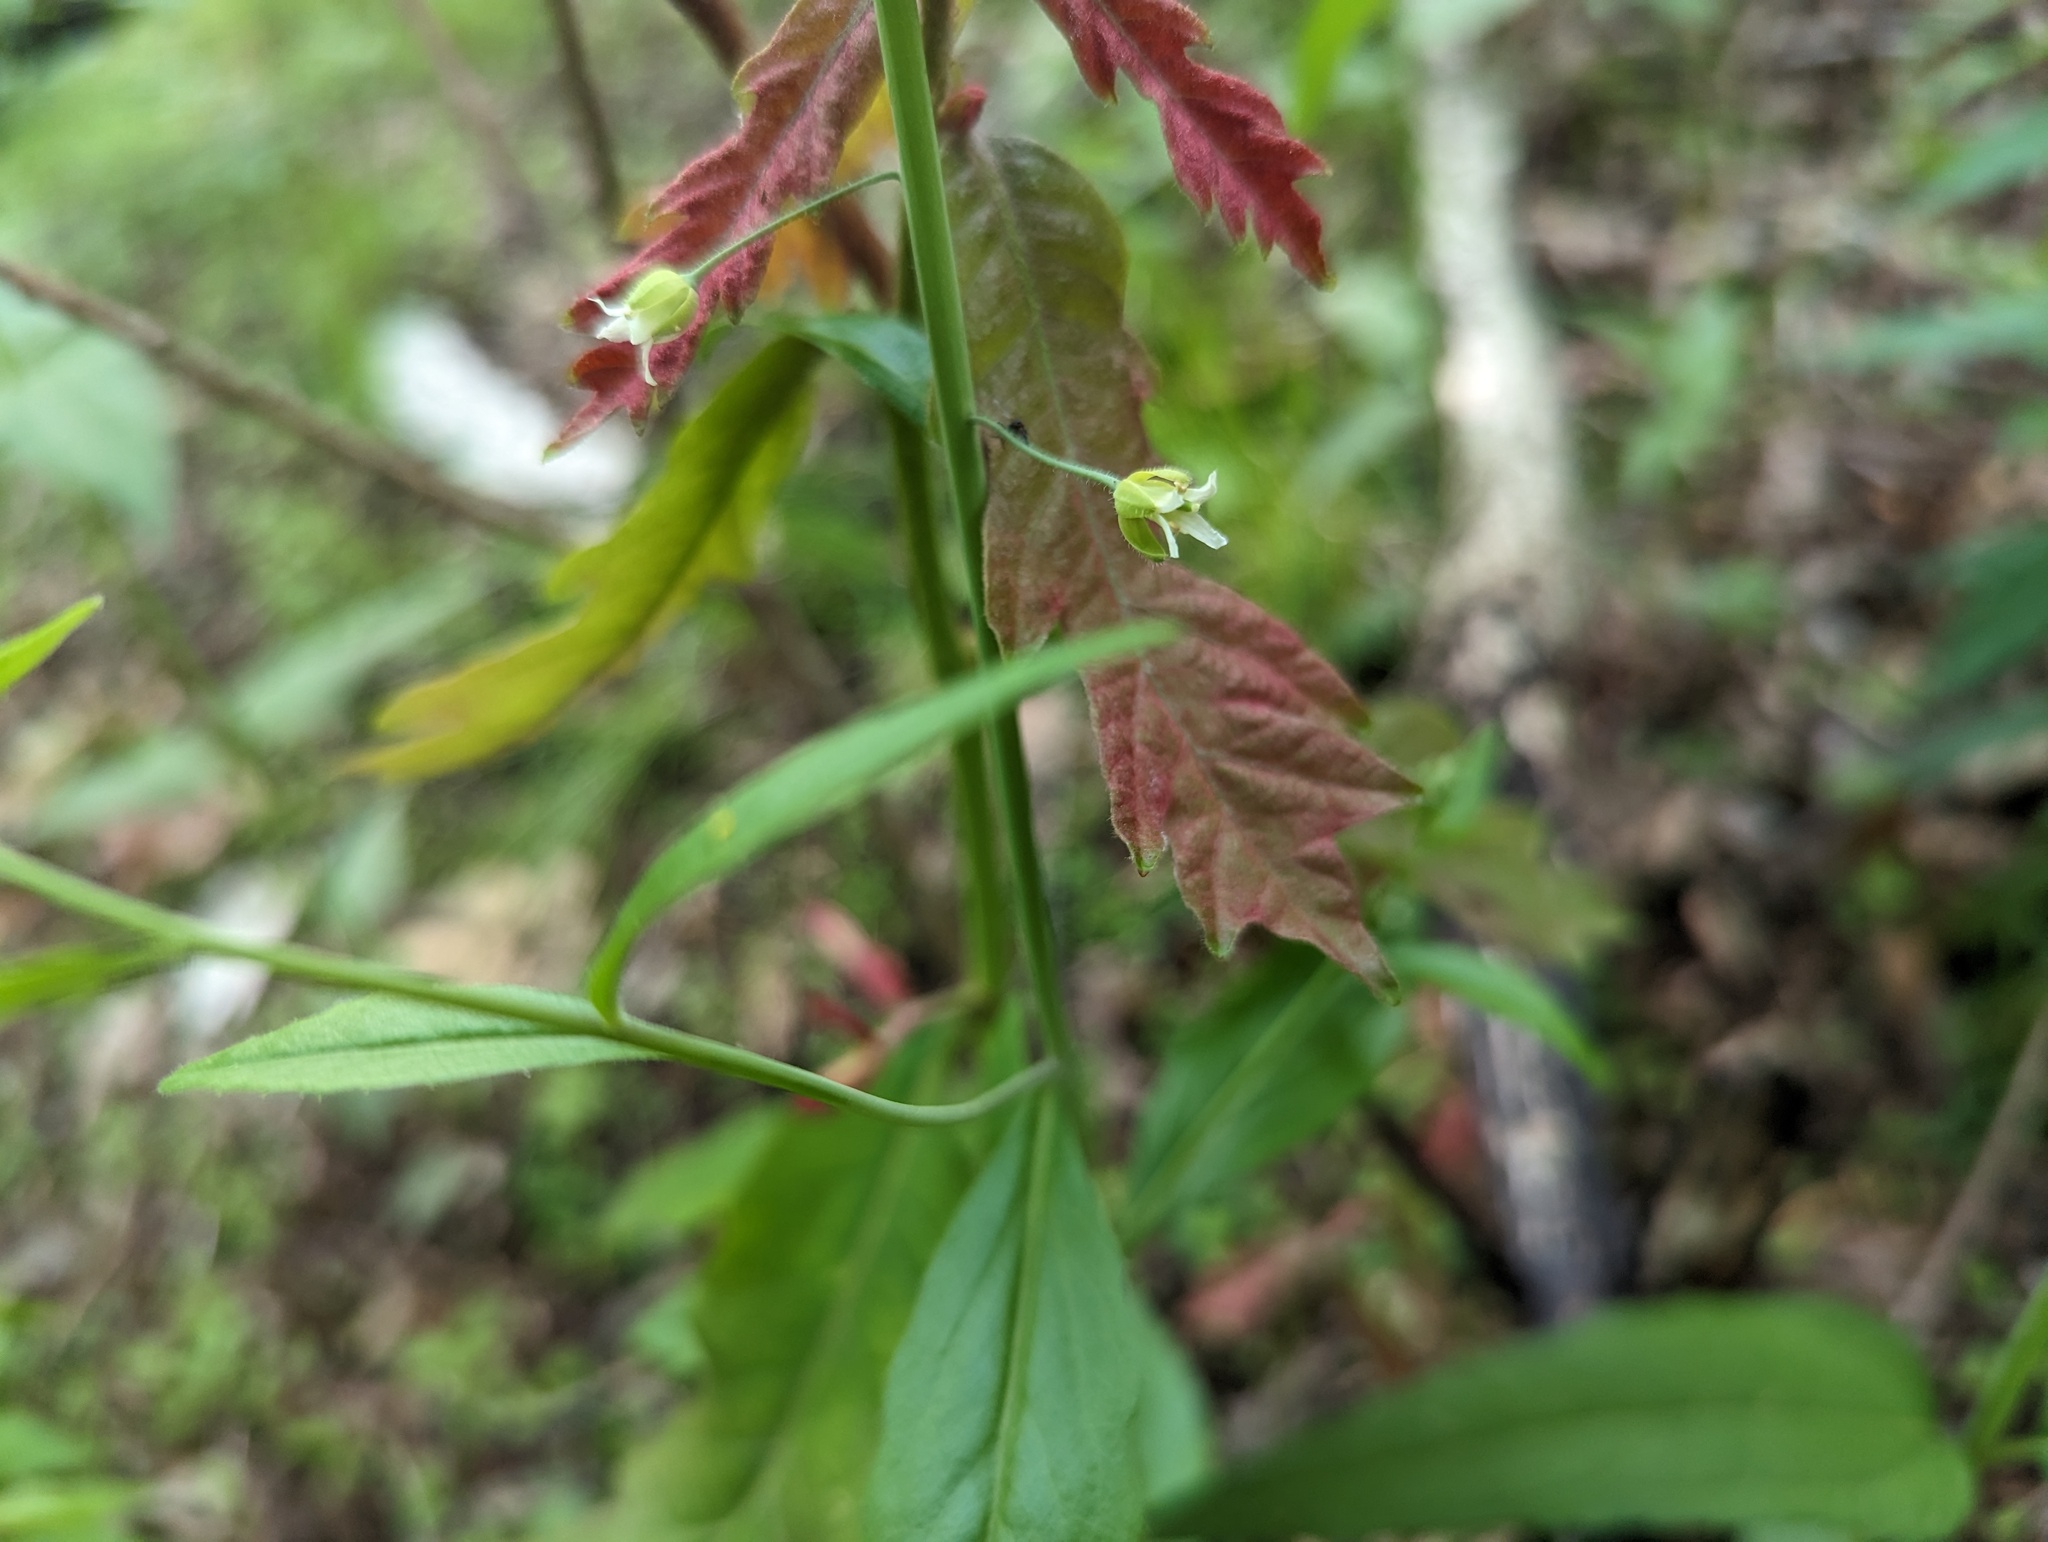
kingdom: Plantae
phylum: Tracheophyta
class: Magnoliopsida
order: Brassicales
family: Brassicaceae
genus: Borodinia
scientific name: Borodinia canadensis
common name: Sicklepod
